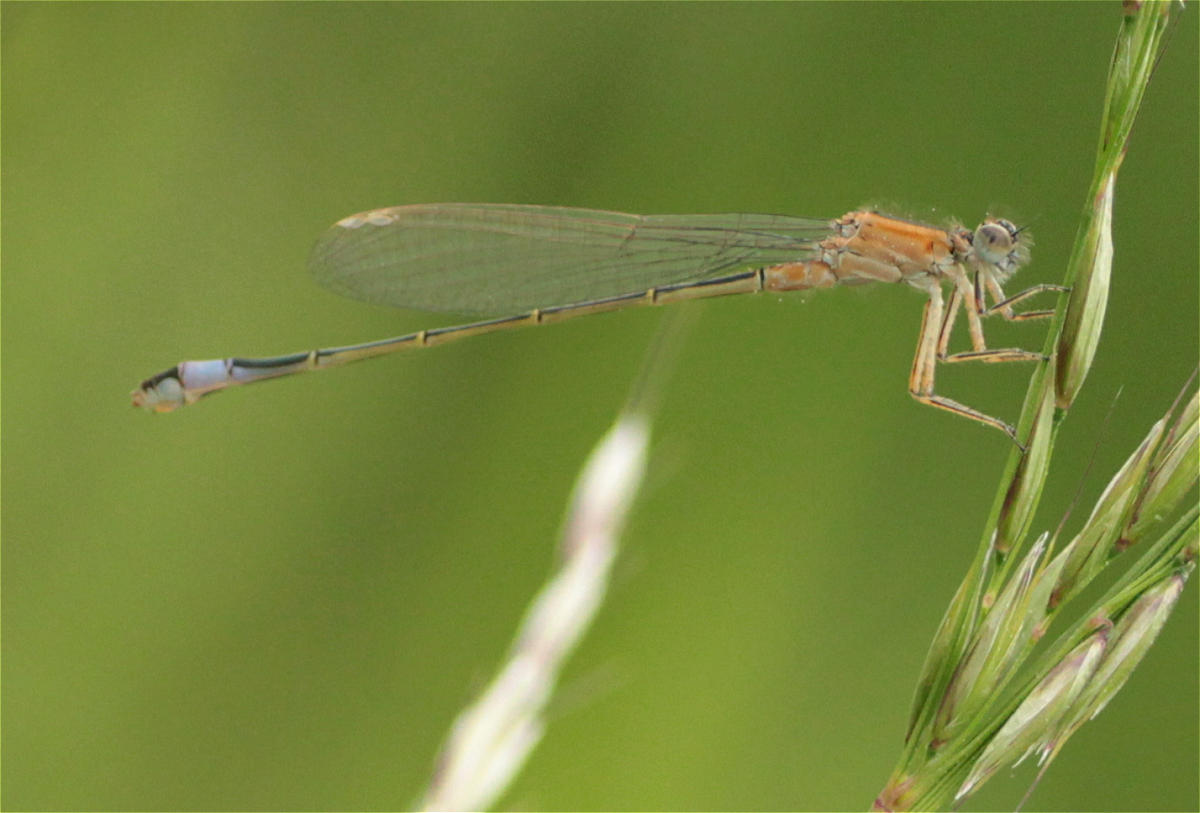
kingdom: Animalia
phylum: Arthropoda
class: Insecta
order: Odonata
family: Coenagrionidae
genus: Ischnura
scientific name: Ischnura elegans
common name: Blue-tailed damselfly
